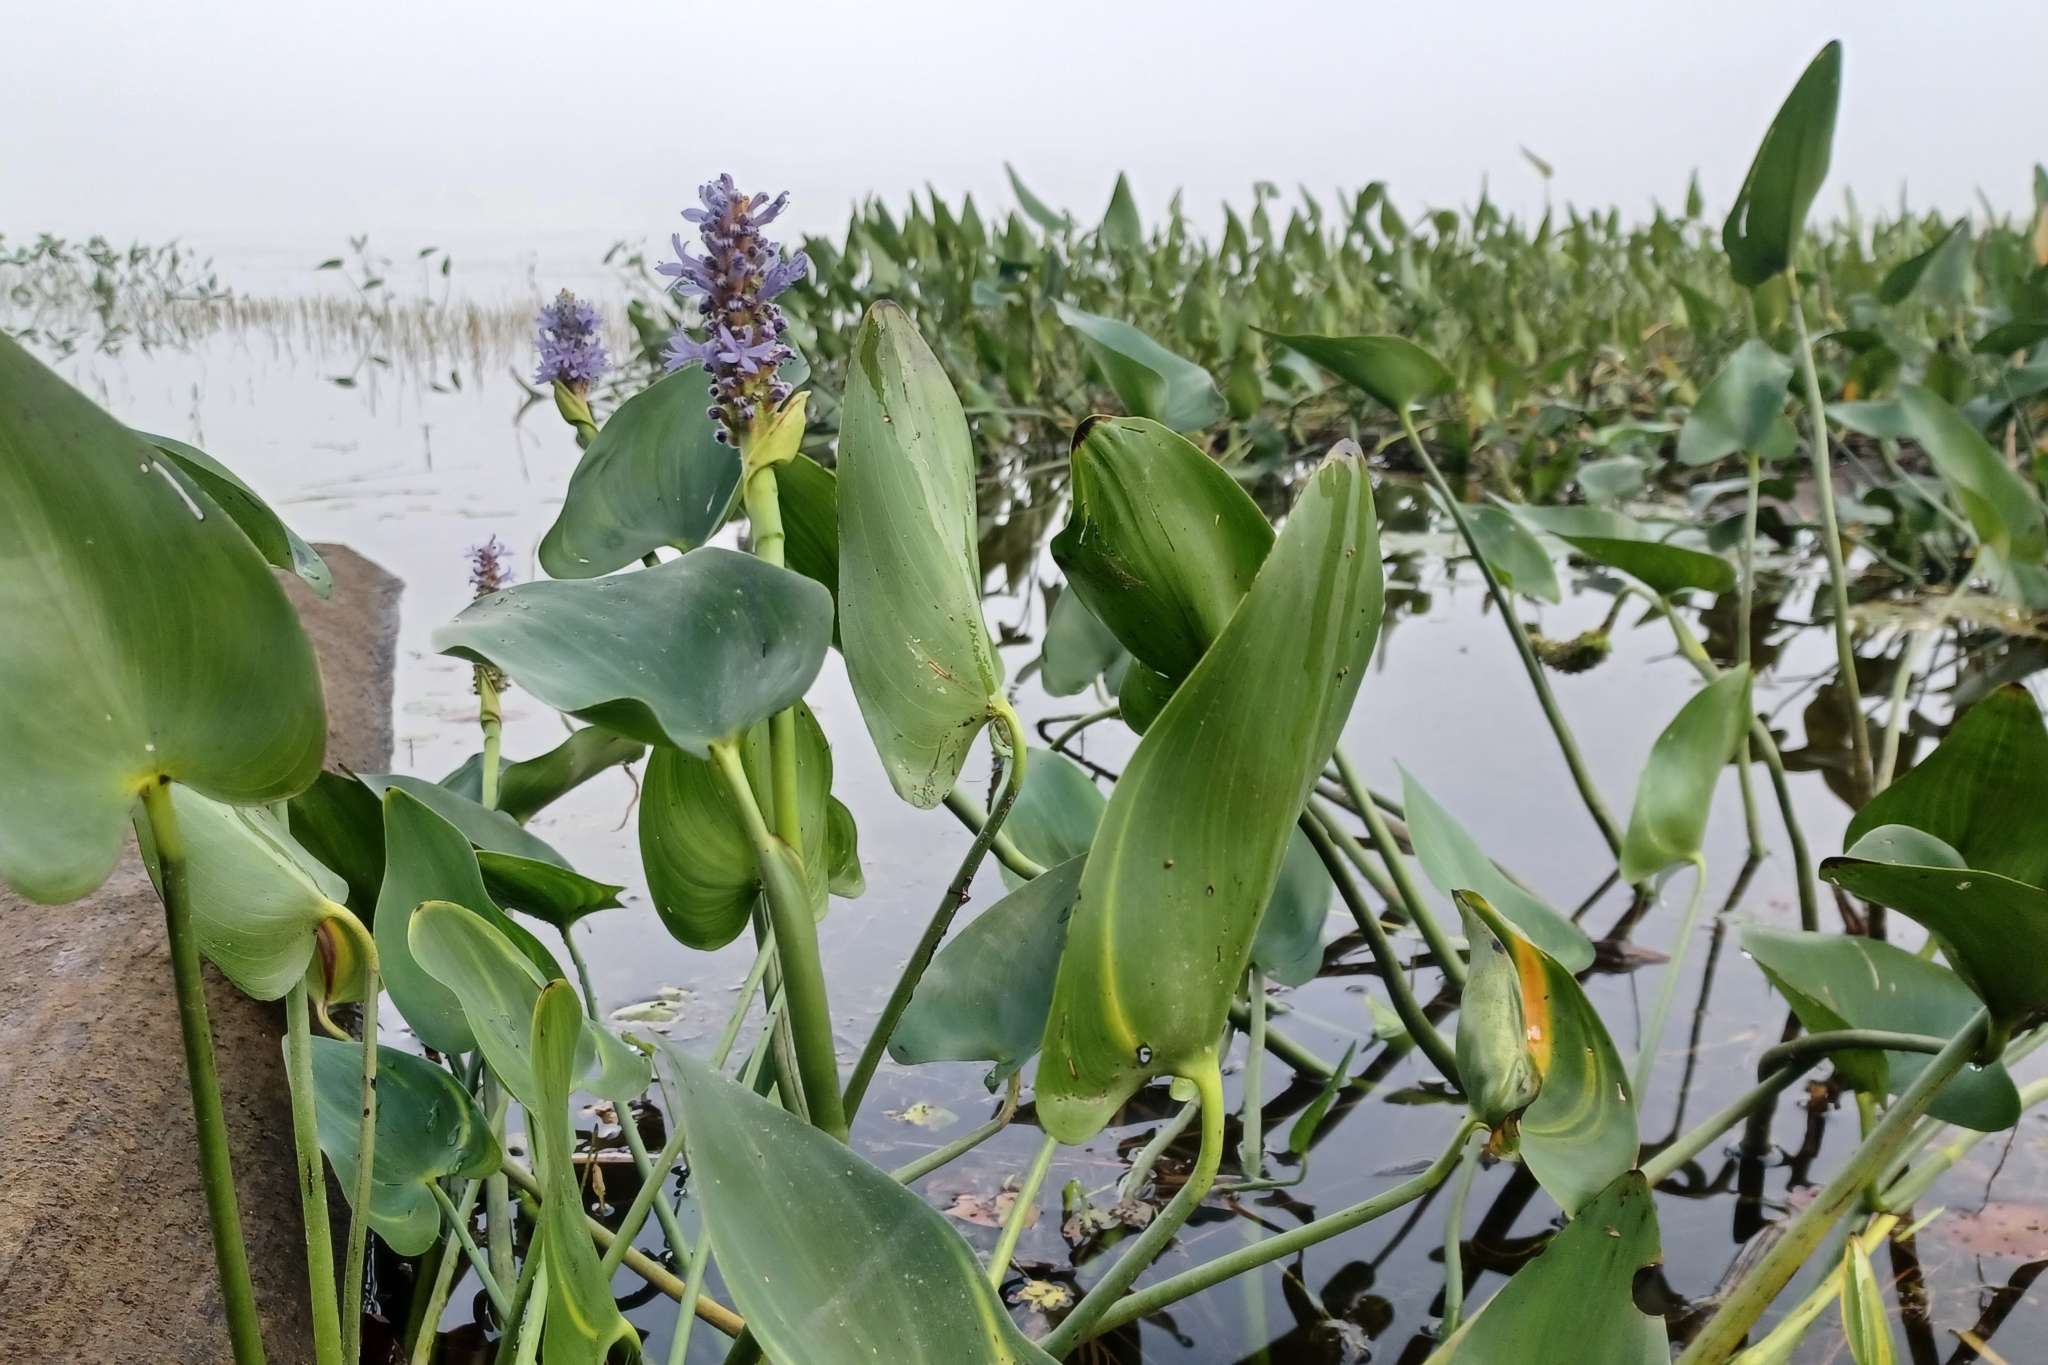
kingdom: Plantae
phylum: Tracheophyta
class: Liliopsida
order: Commelinales
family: Pontederiaceae
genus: Pontederia
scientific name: Pontederia cordata
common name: Pickerelweed
